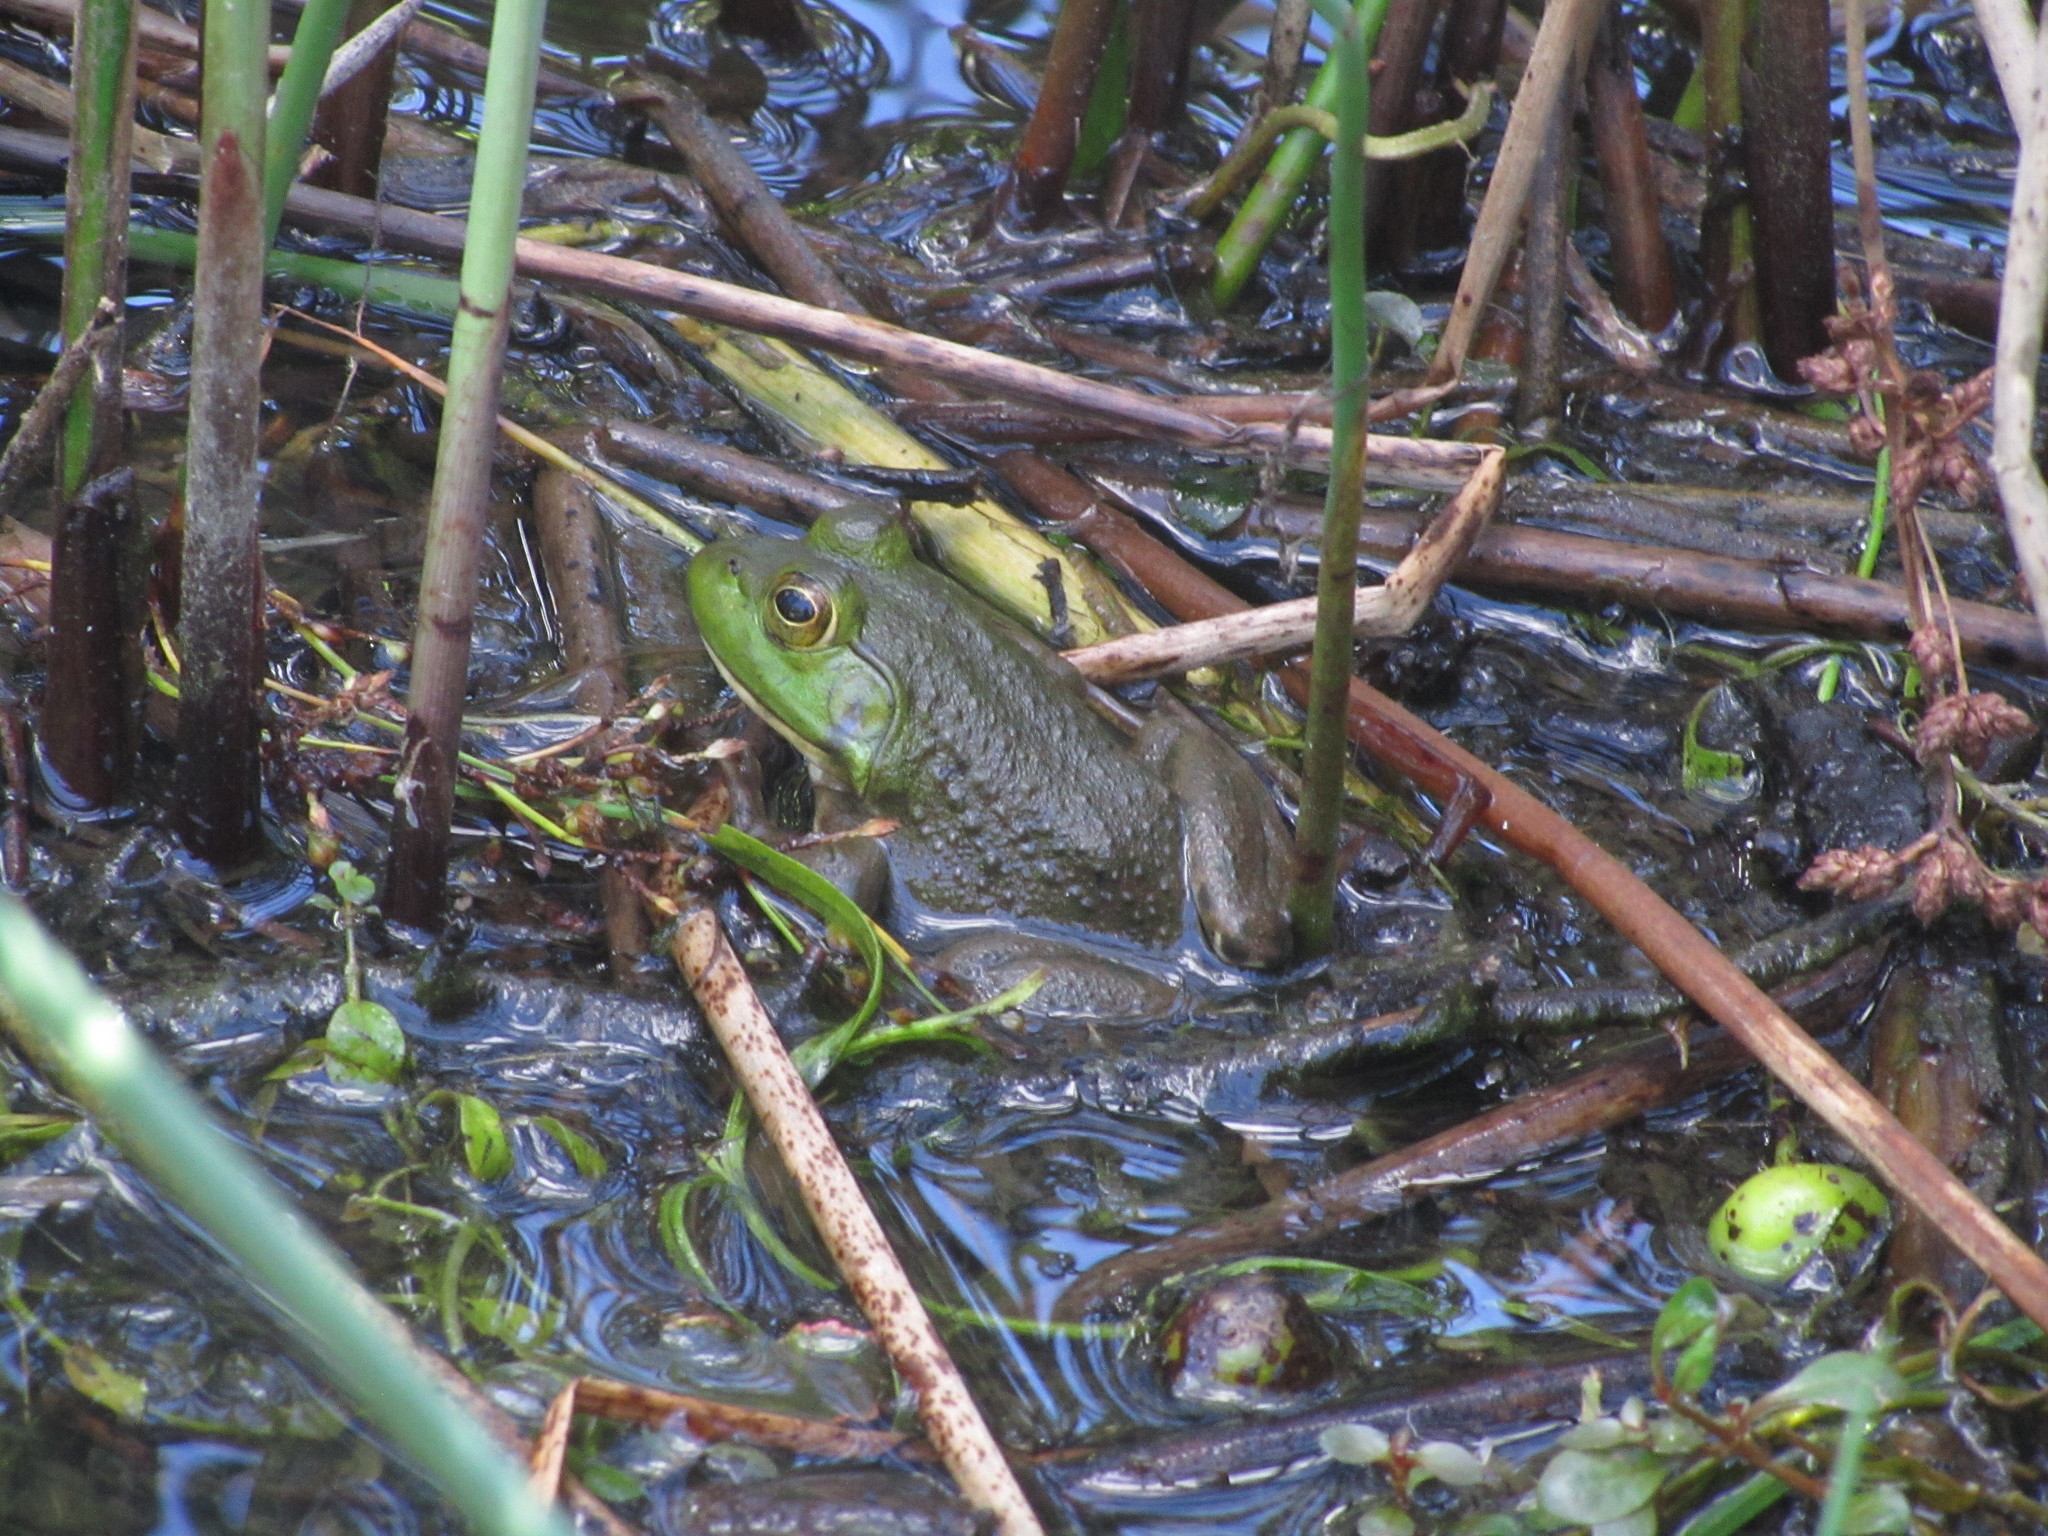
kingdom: Animalia
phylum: Chordata
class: Amphibia
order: Anura
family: Ranidae
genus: Lithobates
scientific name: Lithobates catesbeianus
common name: American bullfrog
